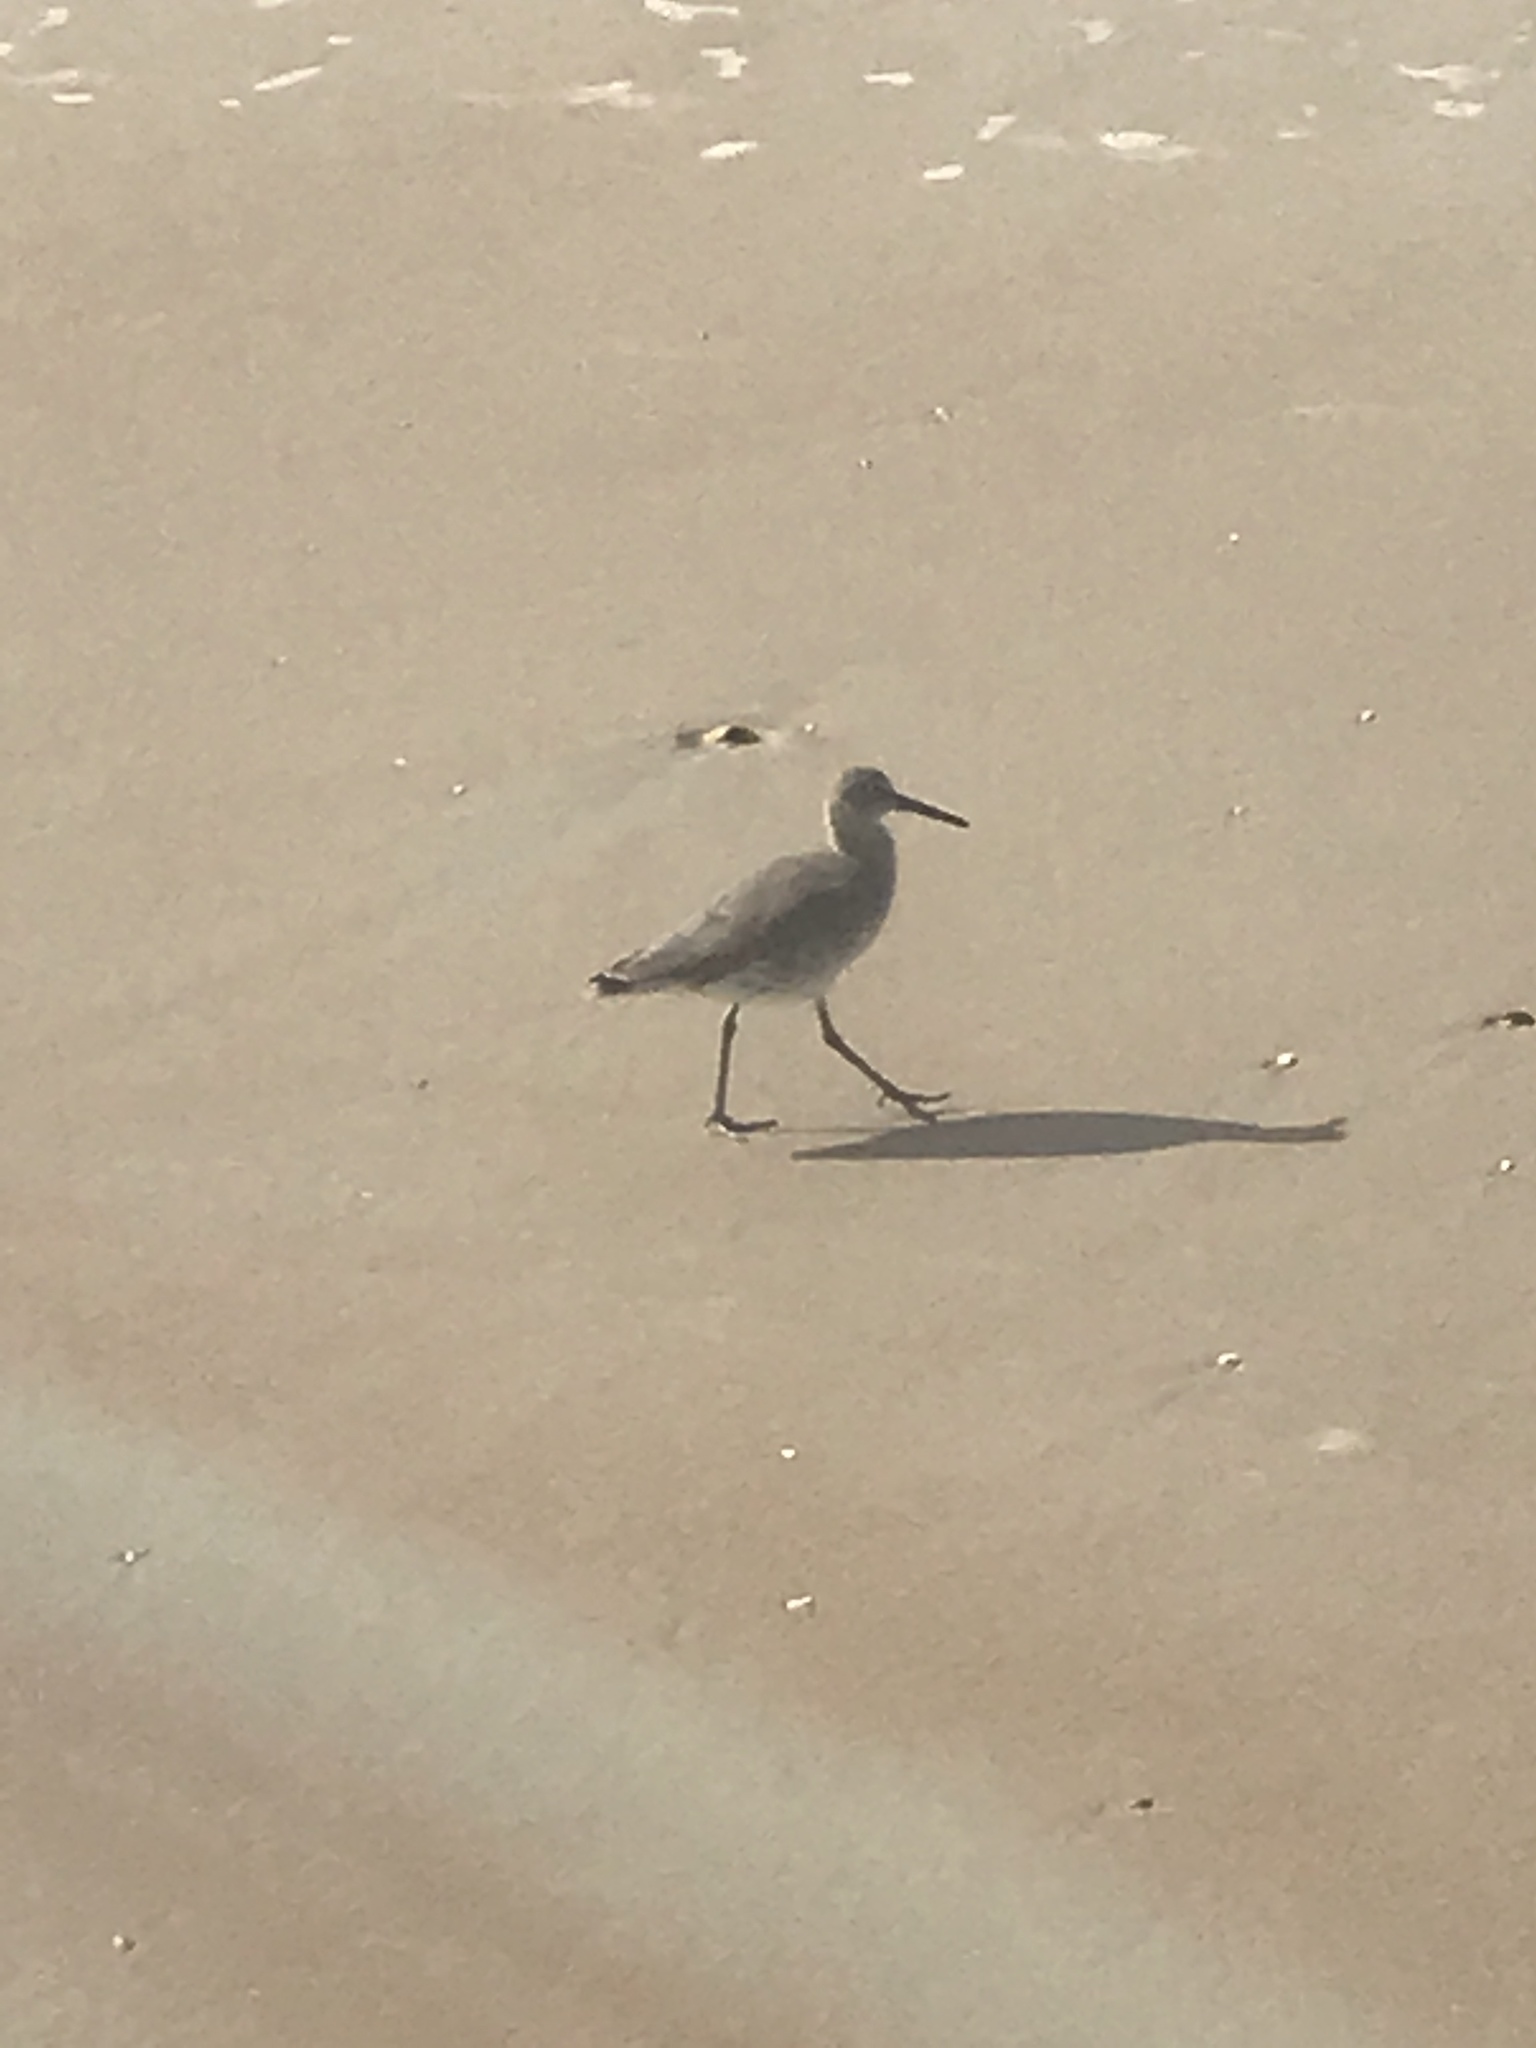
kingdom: Animalia
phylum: Chordata
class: Aves
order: Charadriiformes
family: Scolopacidae
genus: Tringa
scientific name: Tringa semipalmata
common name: Willet
